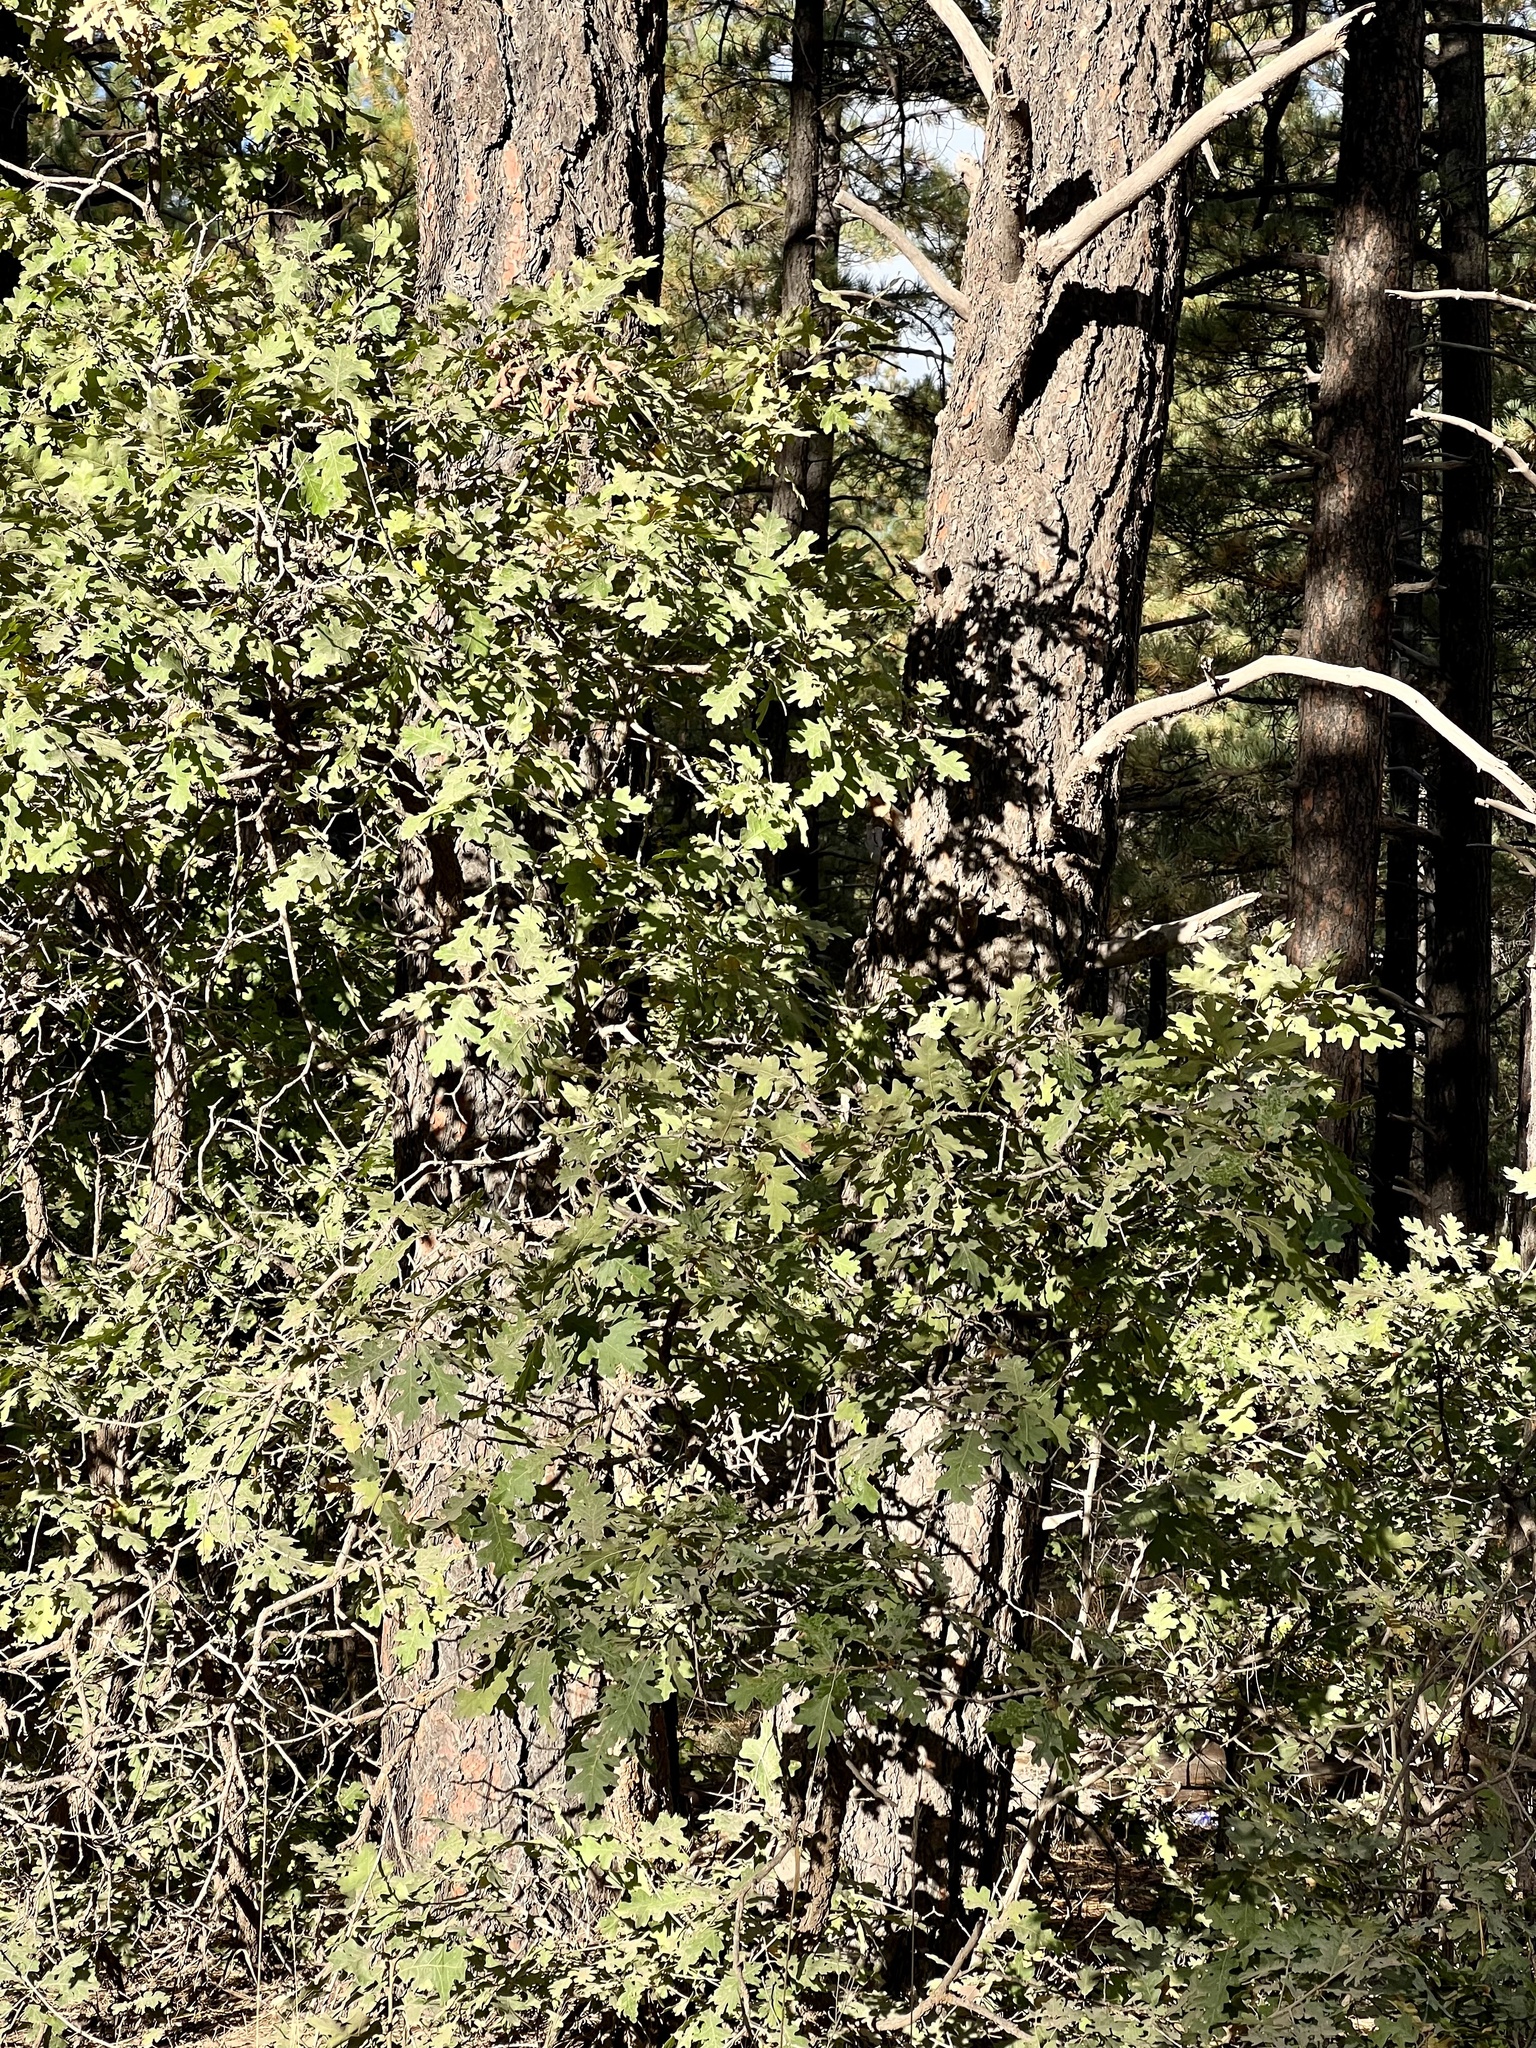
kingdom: Plantae
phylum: Tracheophyta
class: Magnoliopsida
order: Fagales
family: Fagaceae
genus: Quercus
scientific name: Quercus gambelii
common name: Gambel oak
